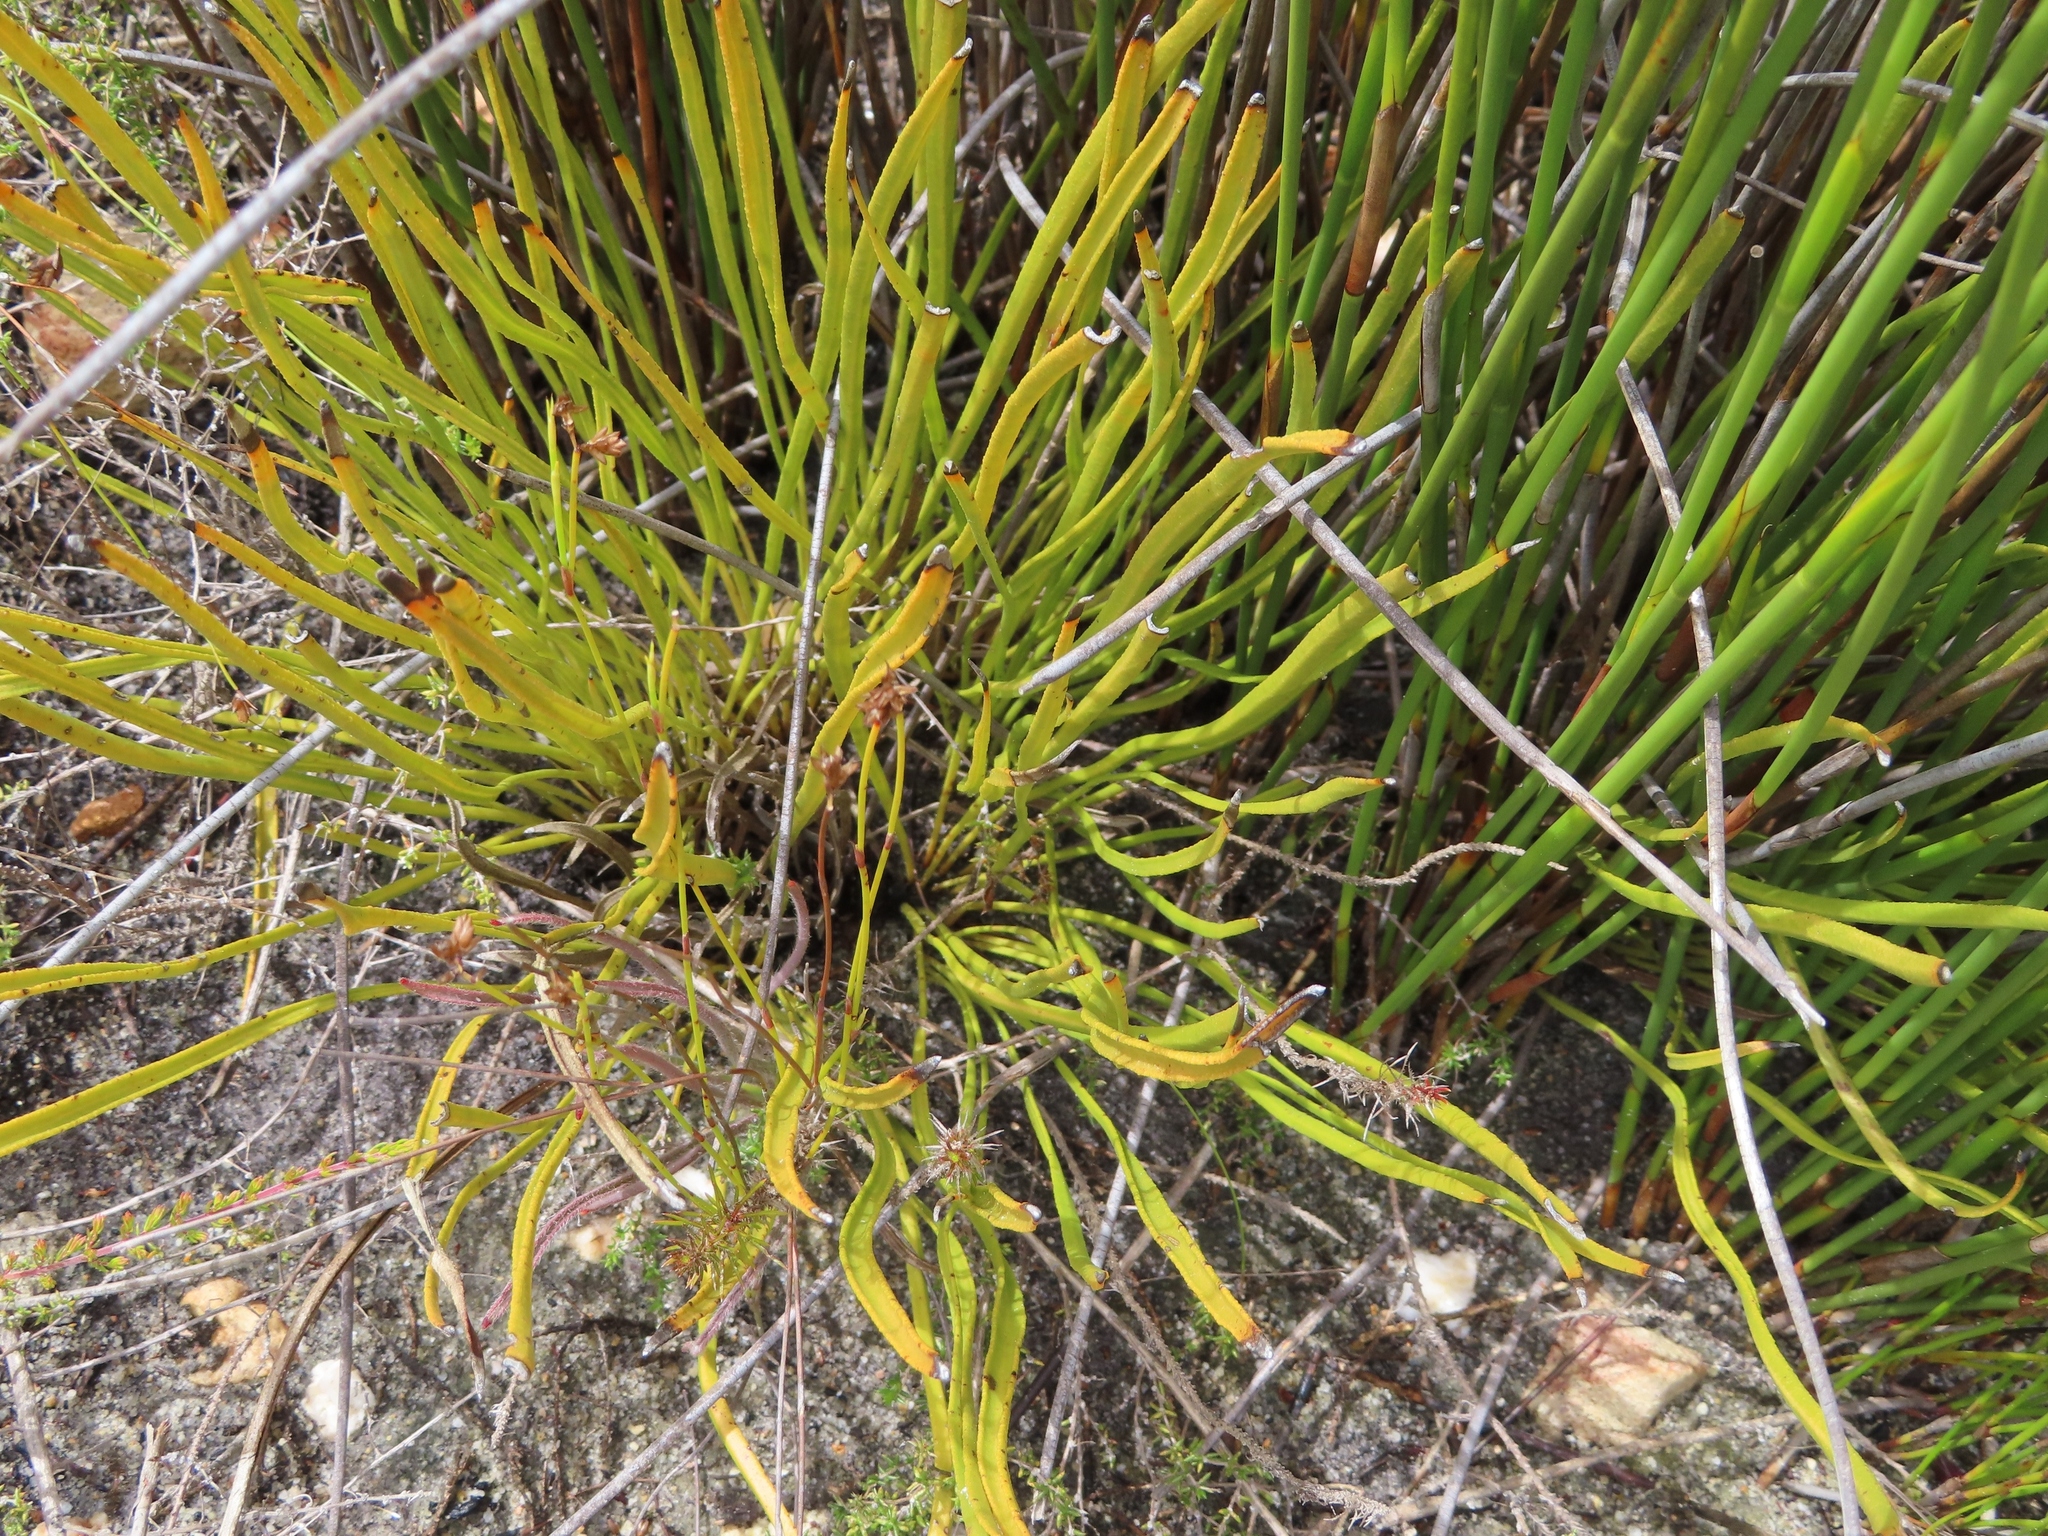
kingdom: Plantae
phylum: Tracheophyta
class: Magnoliopsida
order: Proteales
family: Proteaceae
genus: Protea
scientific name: Protea scabra
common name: Sandpaper-leaf sugarbush
